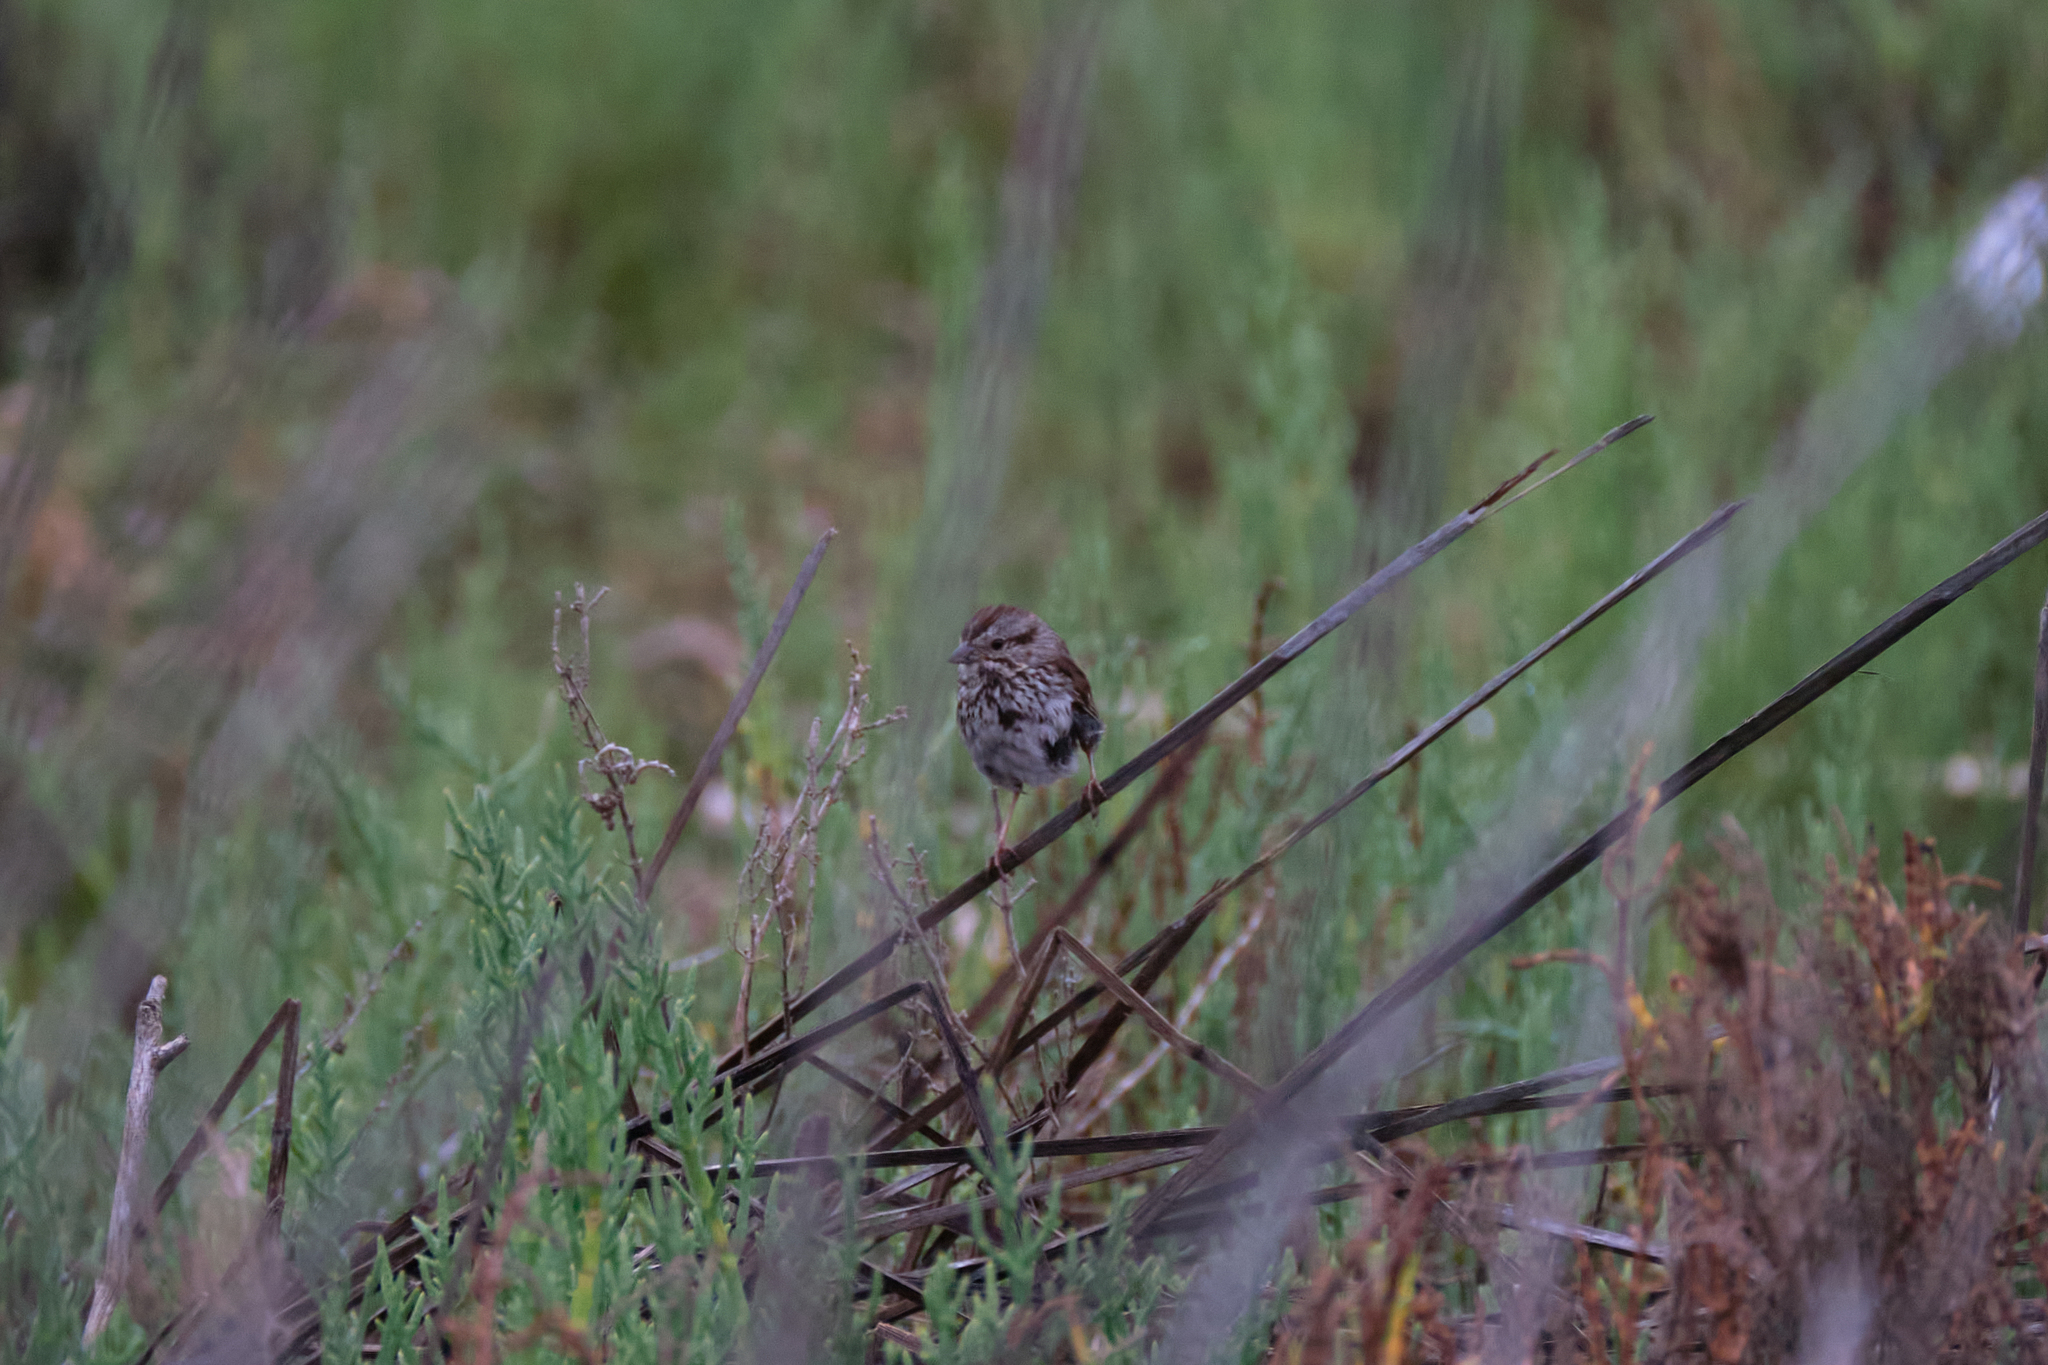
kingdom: Animalia
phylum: Chordata
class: Aves
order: Passeriformes
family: Passerellidae
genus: Melospiza
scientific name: Melospiza melodia
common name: Song sparrow
